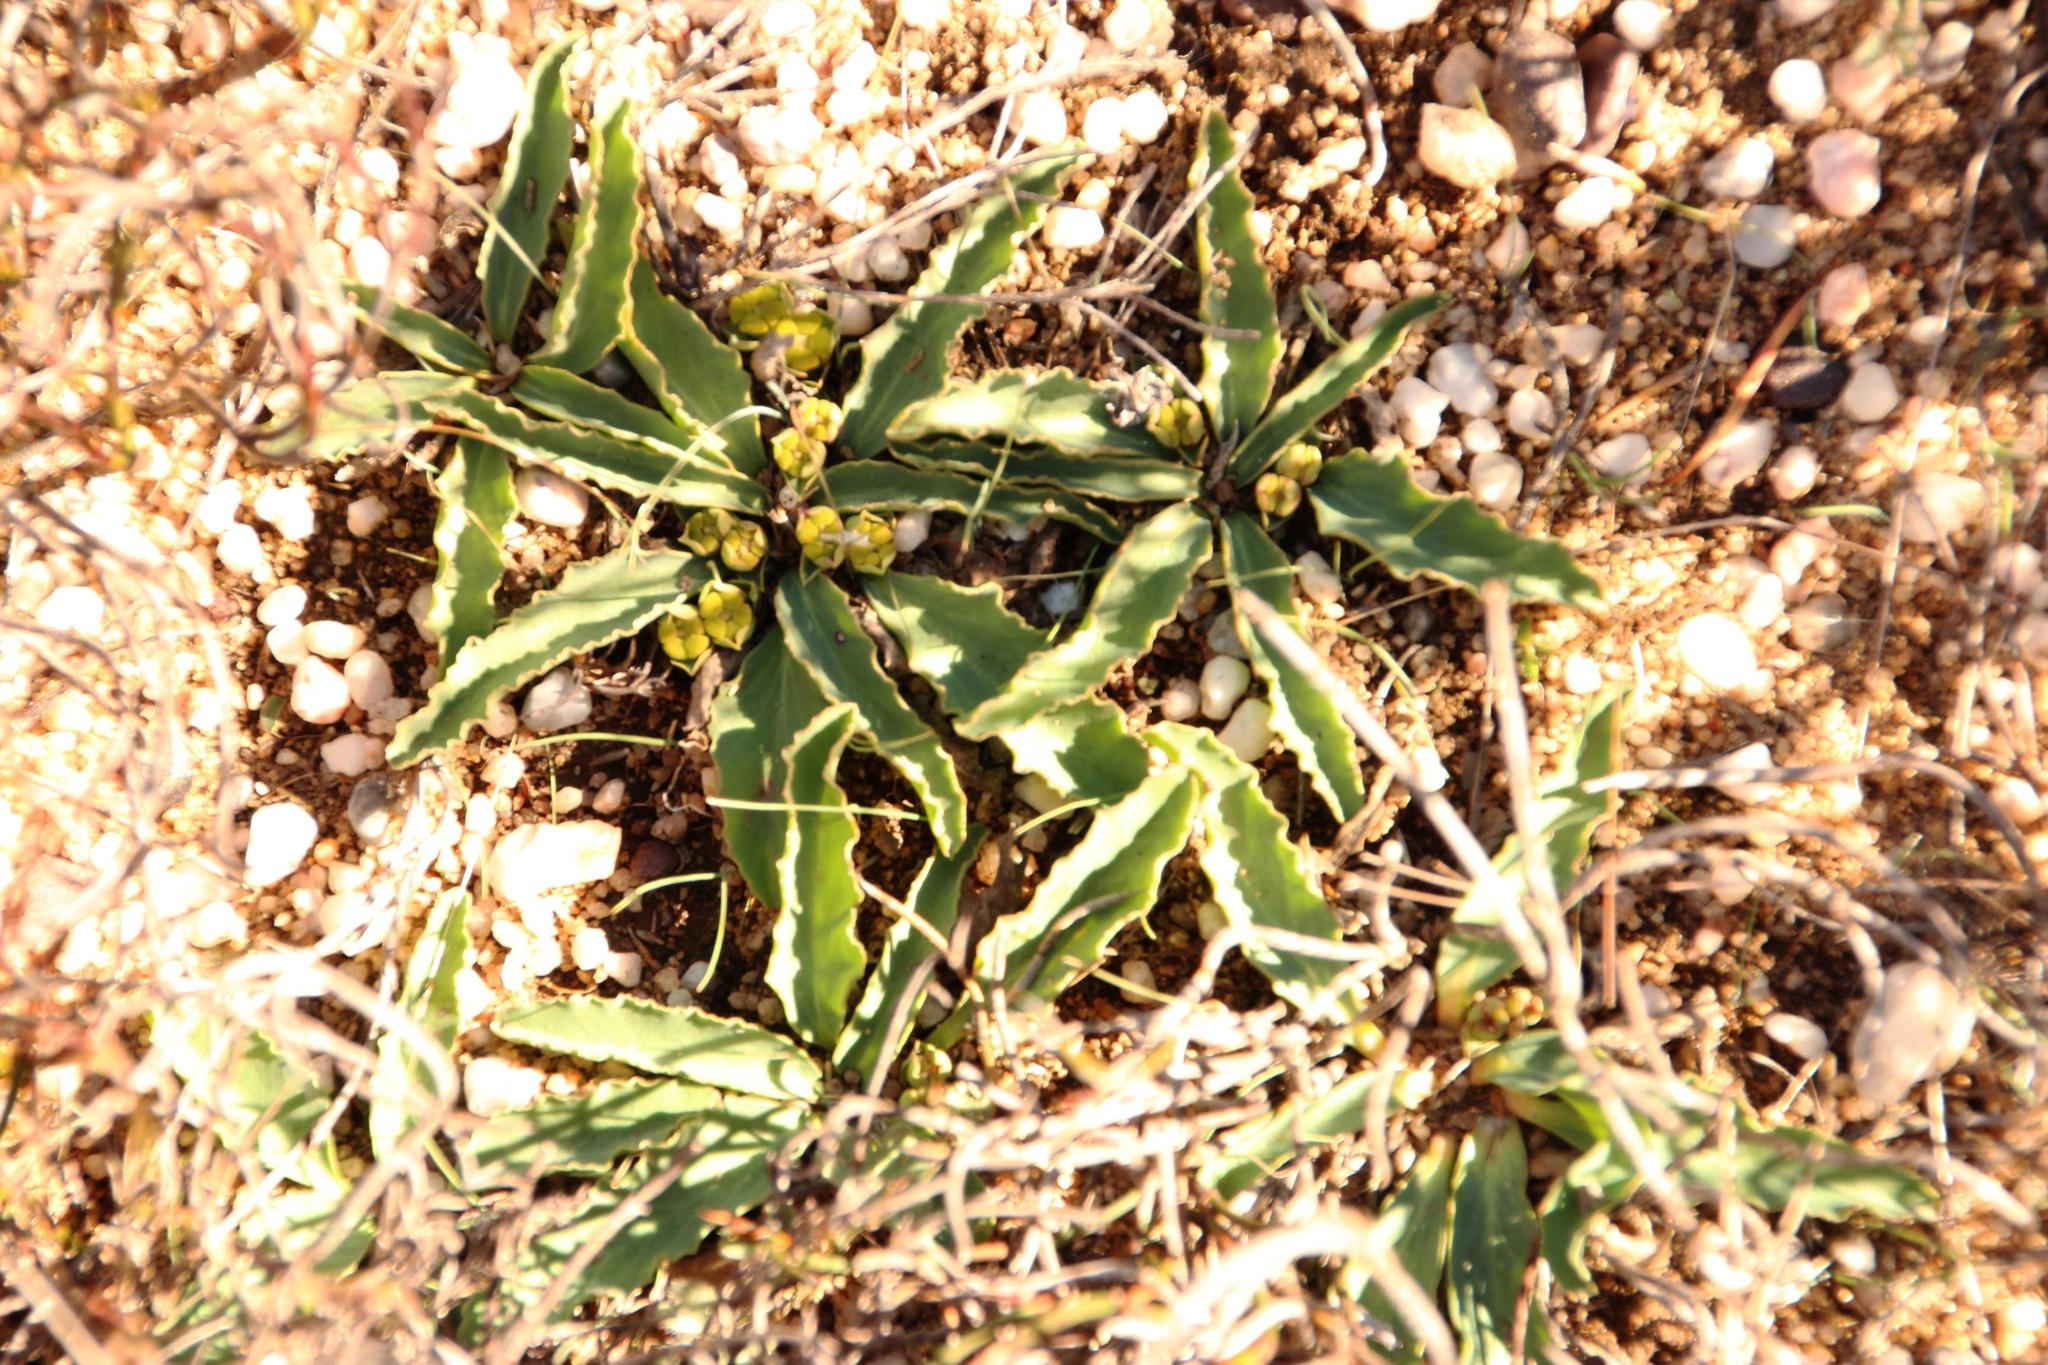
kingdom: Plantae
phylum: Tracheophyta
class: Magnoliopsida
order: Malpighiales
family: Euphorbiaceae
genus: Euphorbia
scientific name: Euphorbia tuberosa
